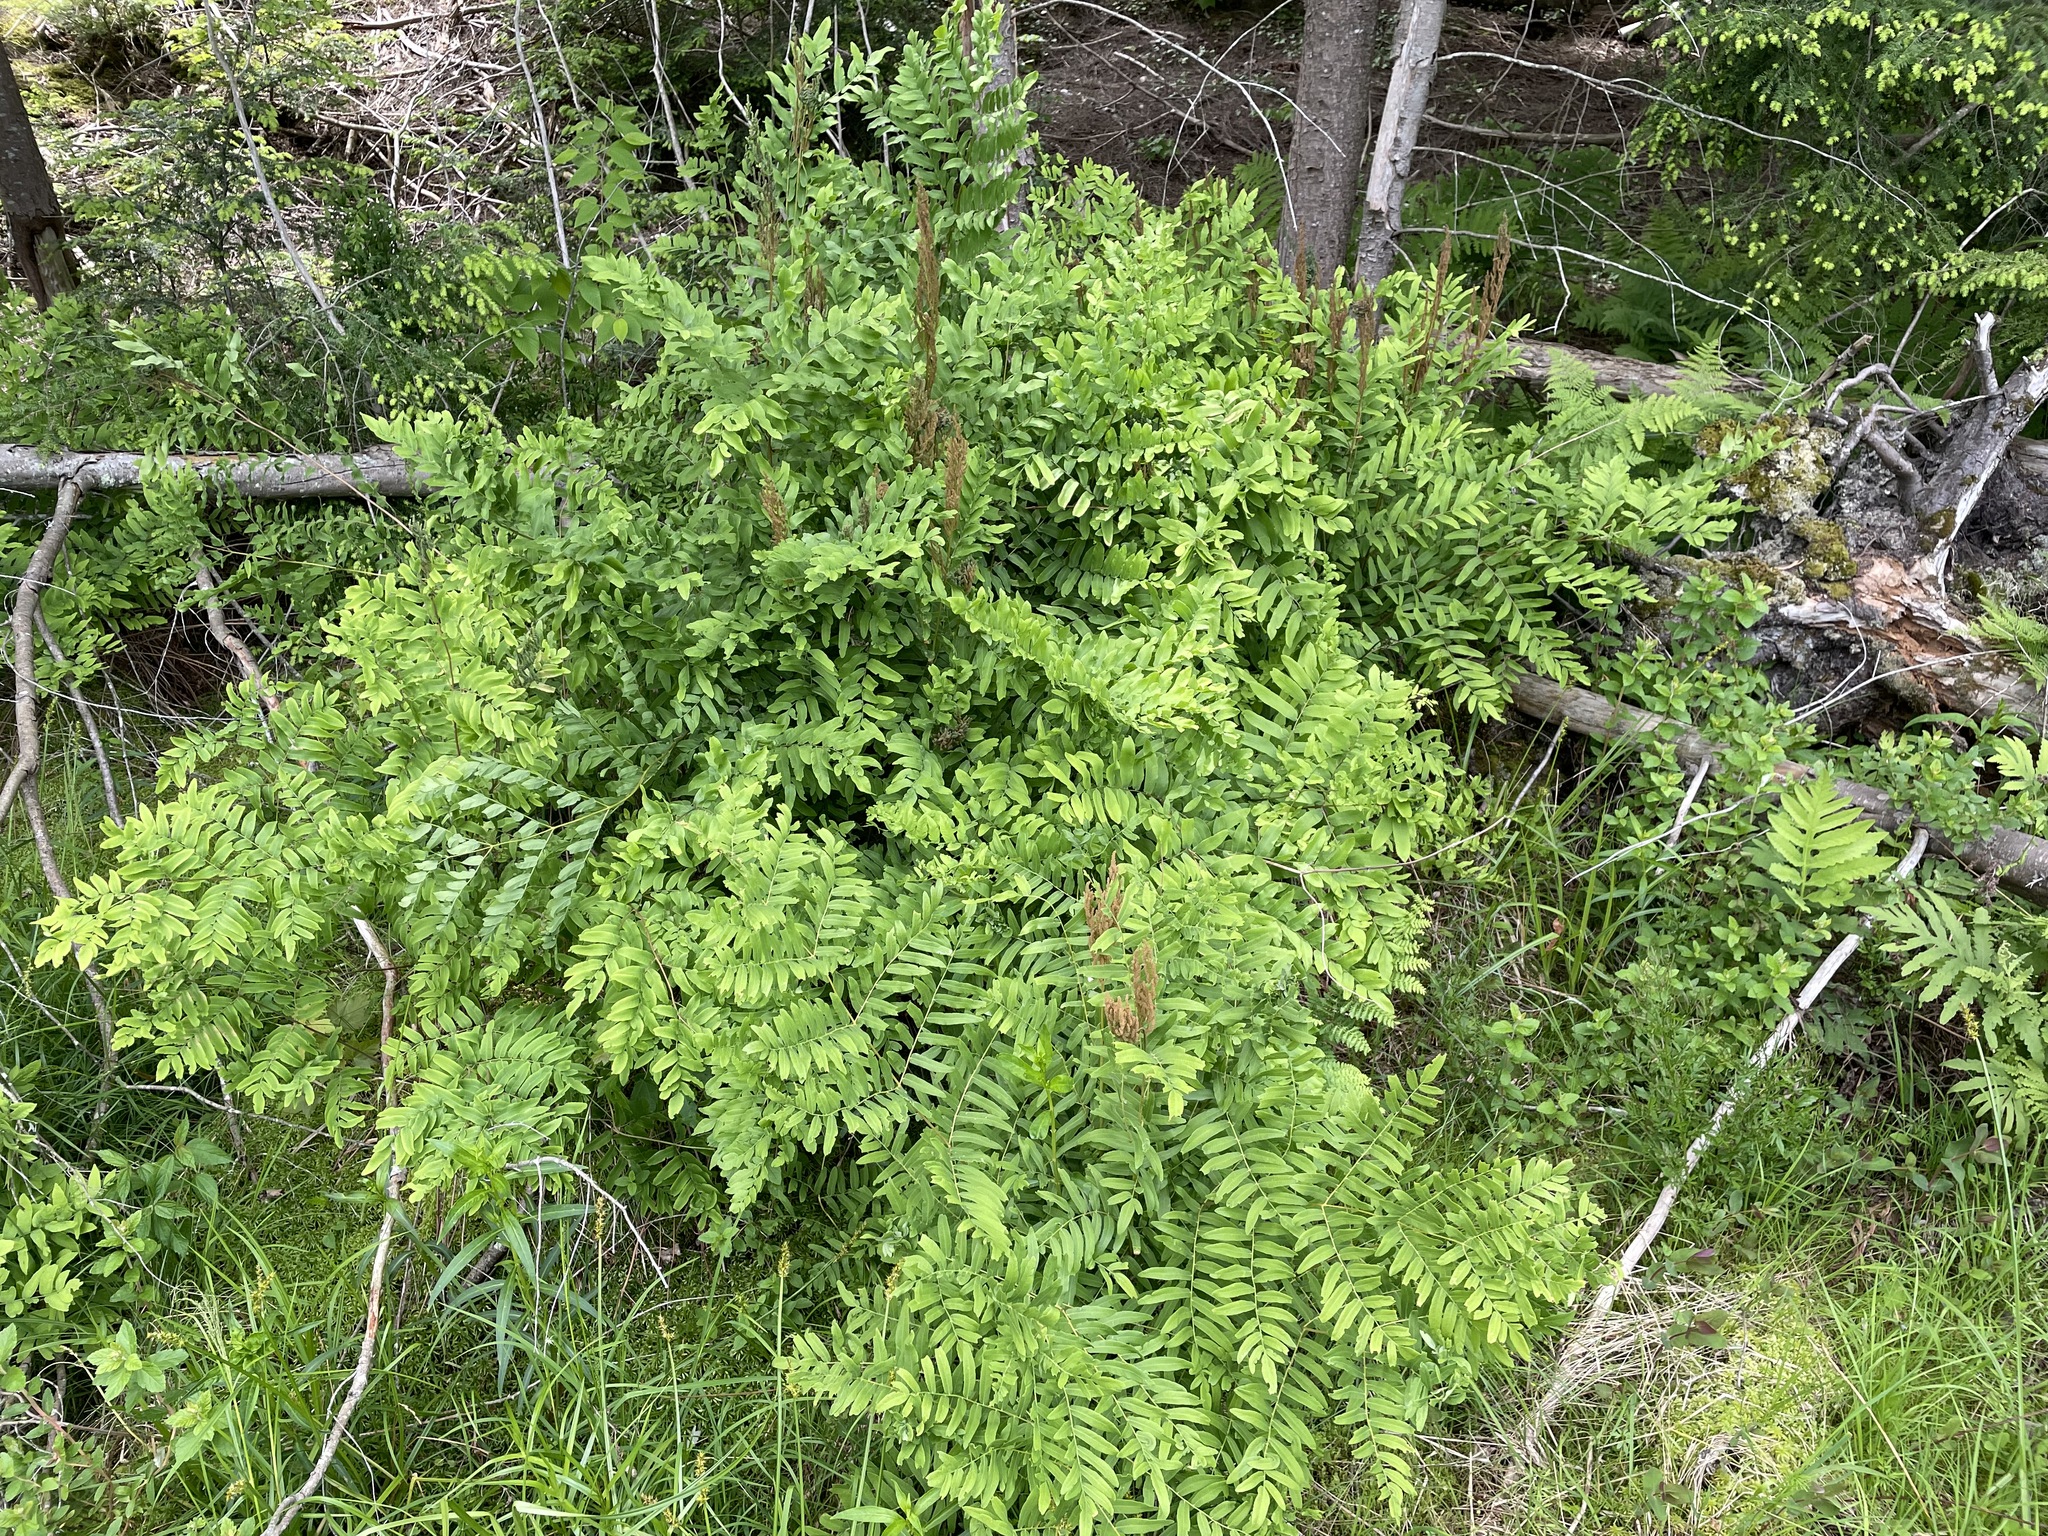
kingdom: Plantae
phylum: Tracheophyta
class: Polypodiopsida
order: Osmundales
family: Osmundaceae
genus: Osmunda
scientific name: Osmunda spectabilis
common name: American royal fern
